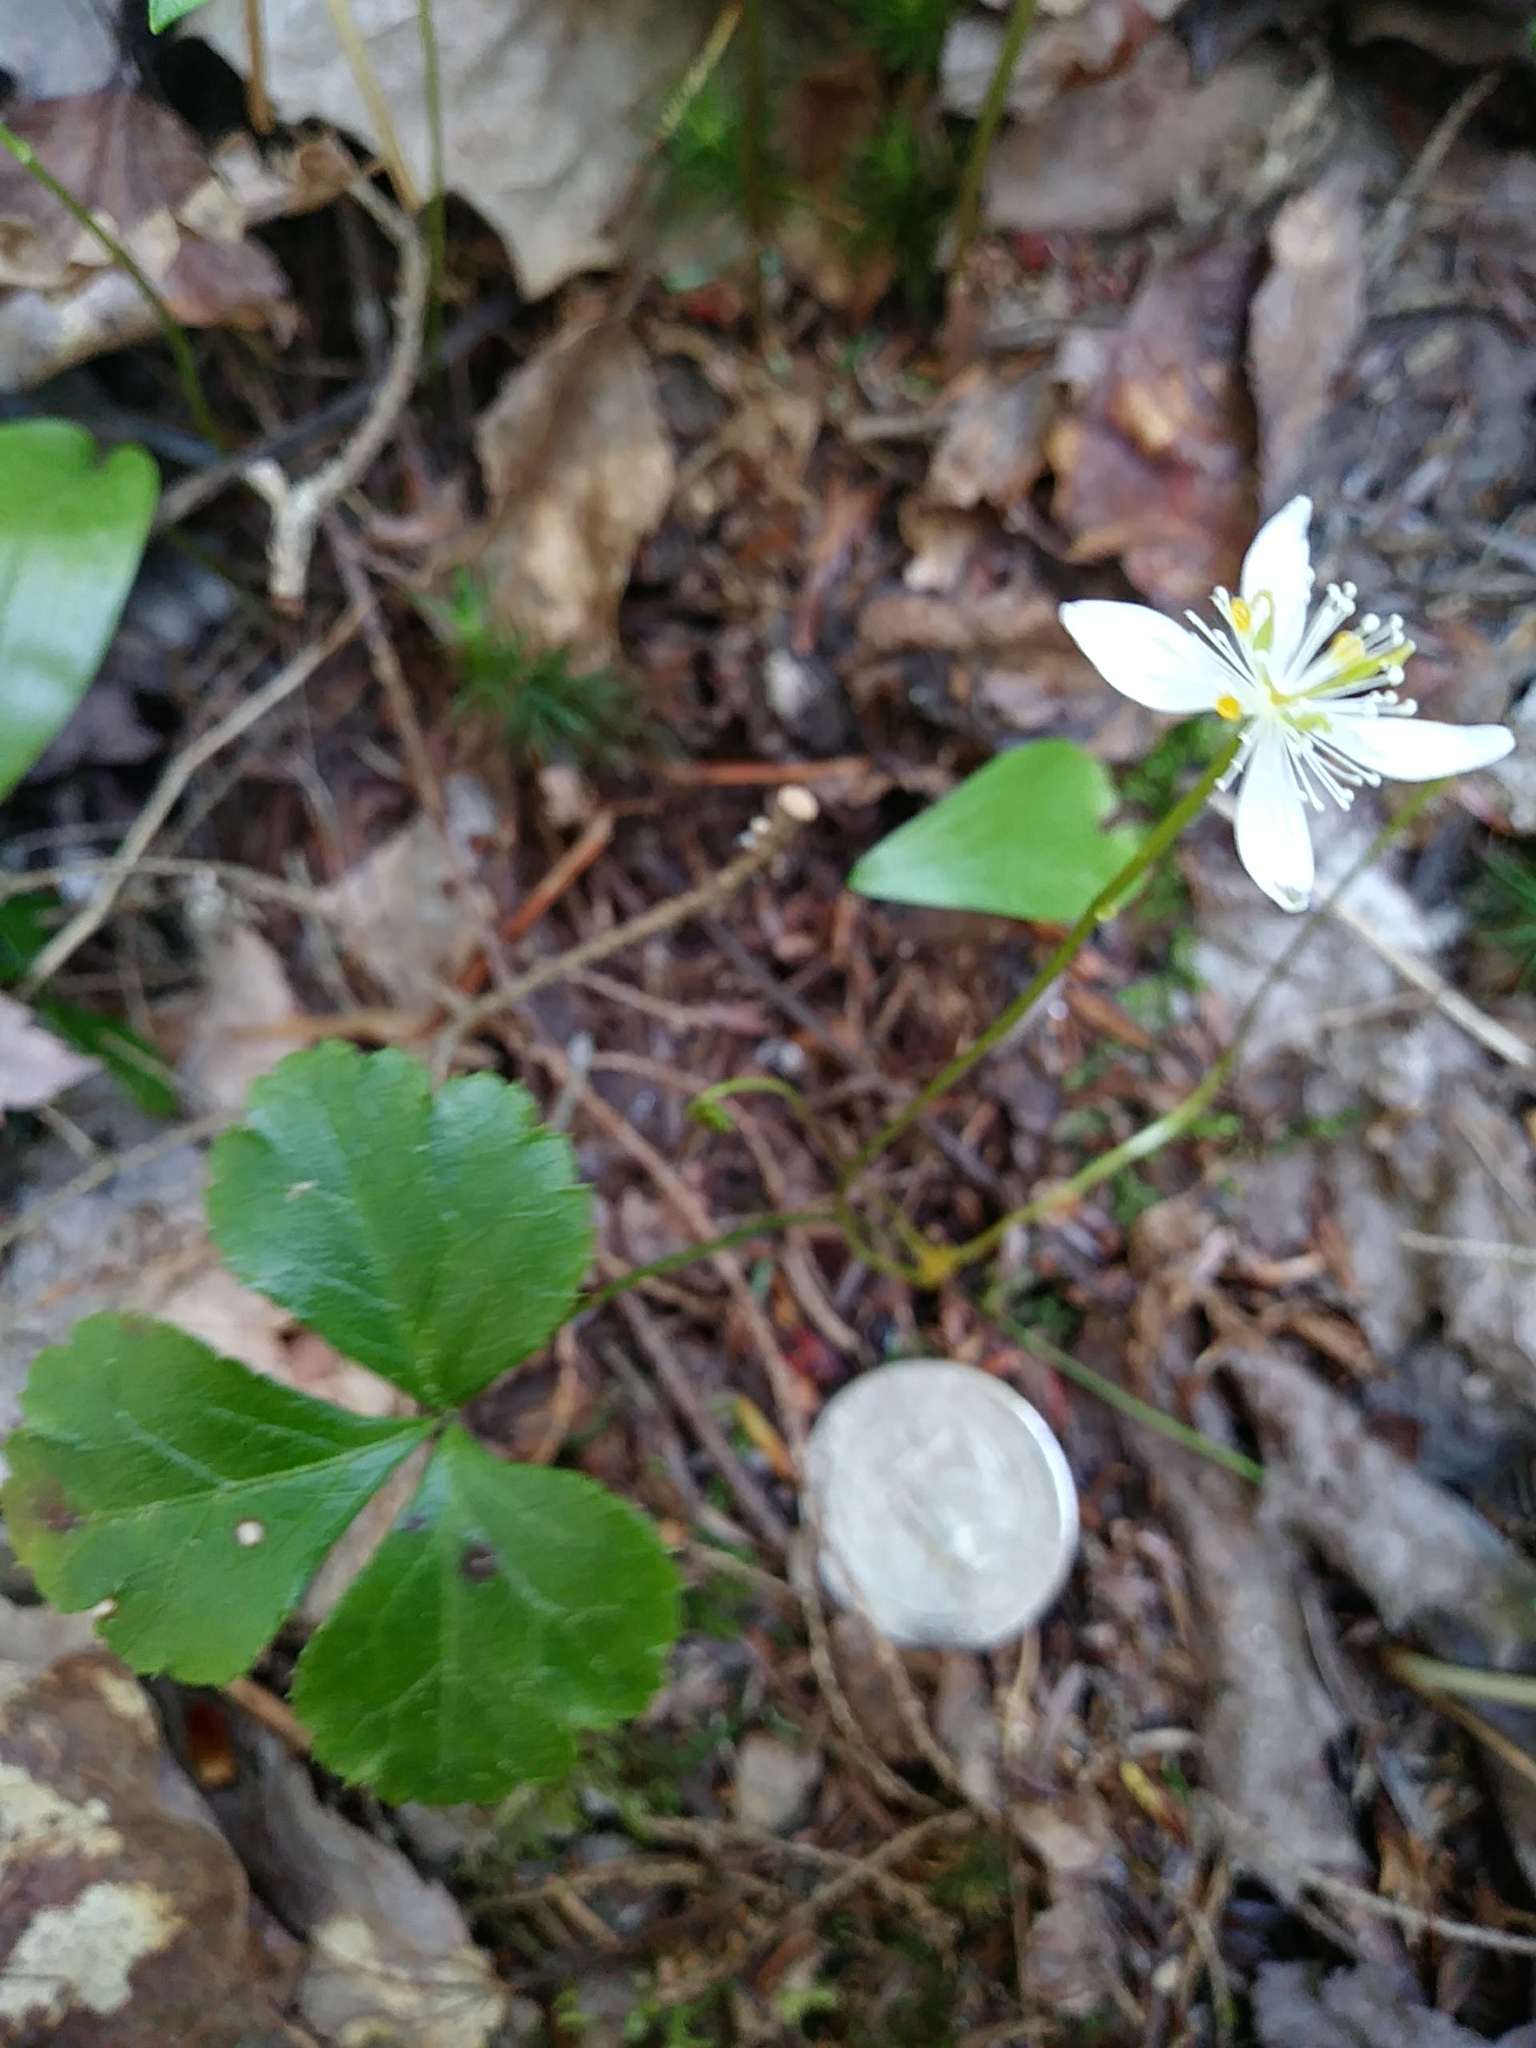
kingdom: Plantae
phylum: Tracheophyta
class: Magnoliopsida
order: Ranunculales
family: Ranunculaceae
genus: Coptis
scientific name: Coptis trifolia
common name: Canker-root
